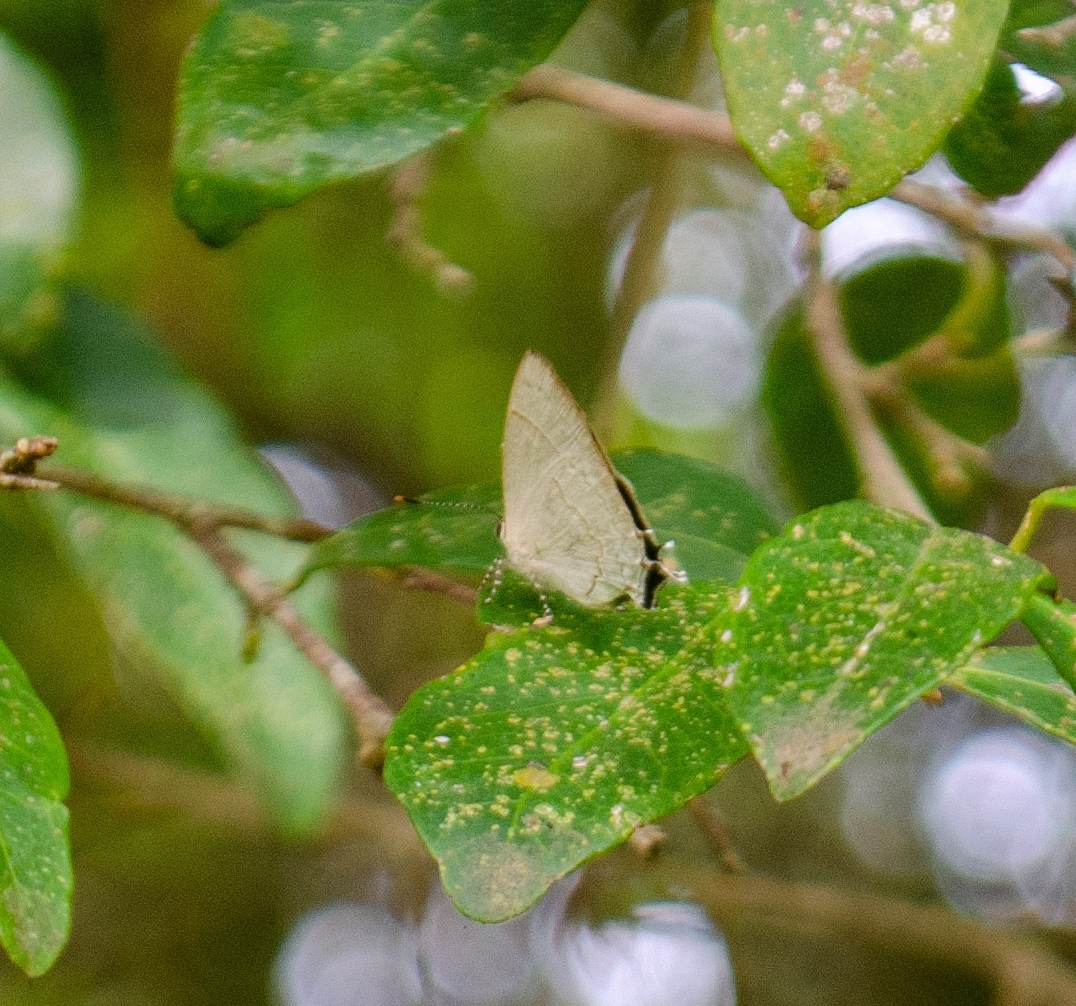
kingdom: Animalia
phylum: Arthropoda
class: Insecta
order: Lepidoptera
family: Lycaenidae
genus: Symbiopsis
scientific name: Symbiopsis lenitas
